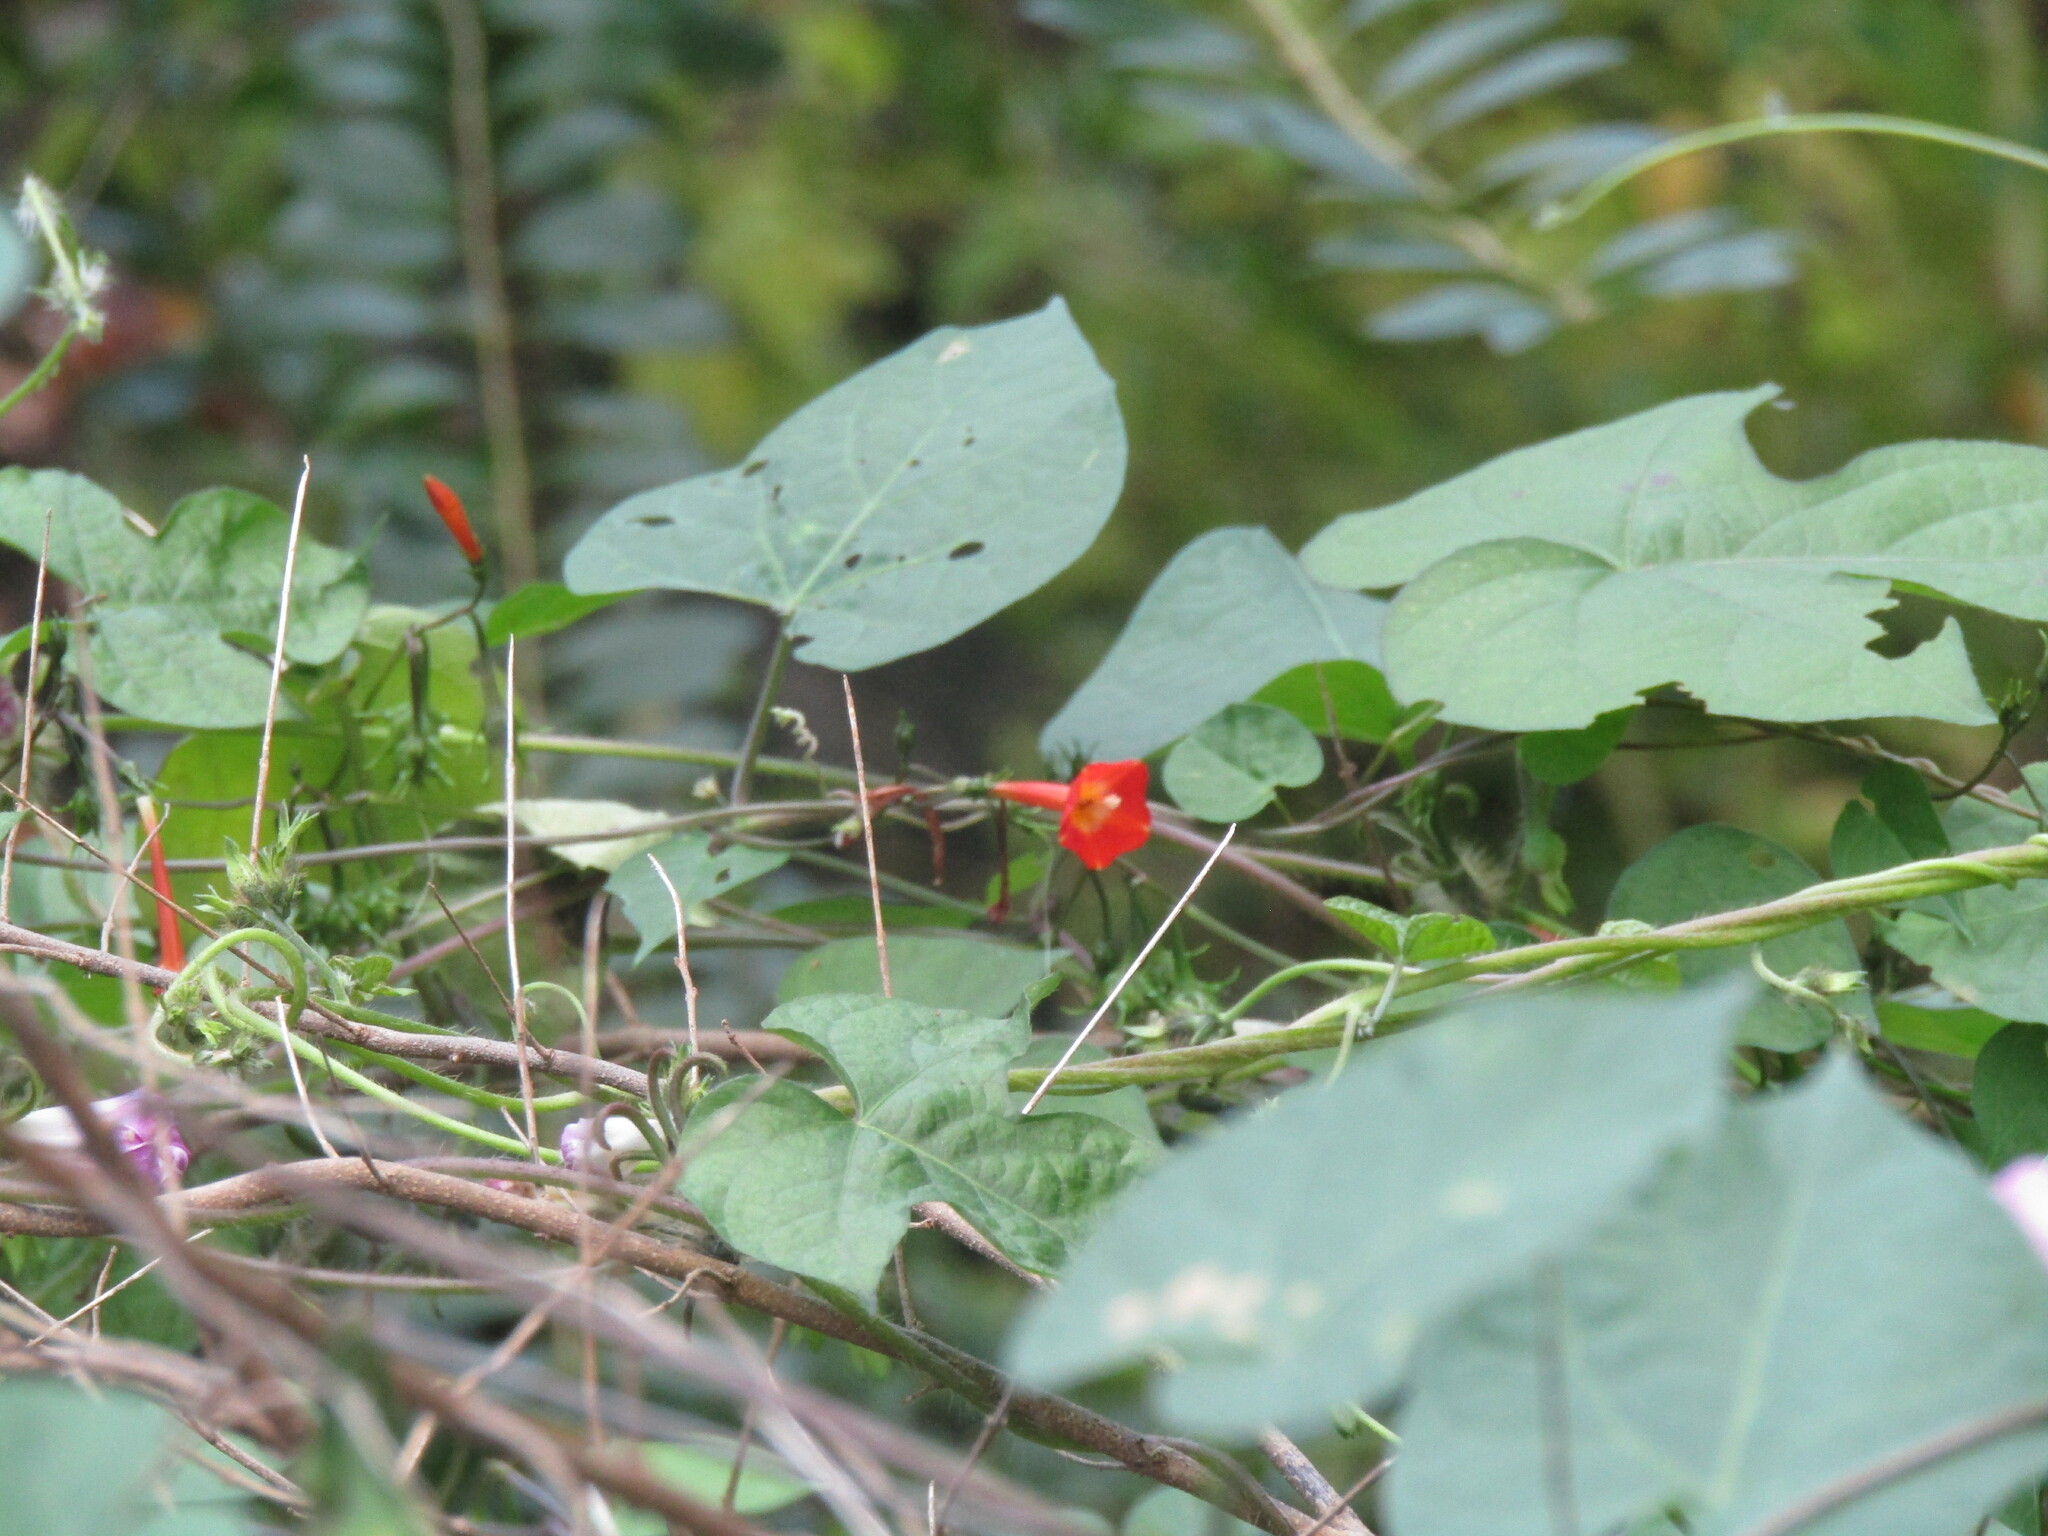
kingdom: Plantae
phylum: Tracheophyta
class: Magnoliopsida
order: Solanales
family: Convolvulaceae
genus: Ipomoea
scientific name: Ipomoea coccinea
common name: Red morning-glory
